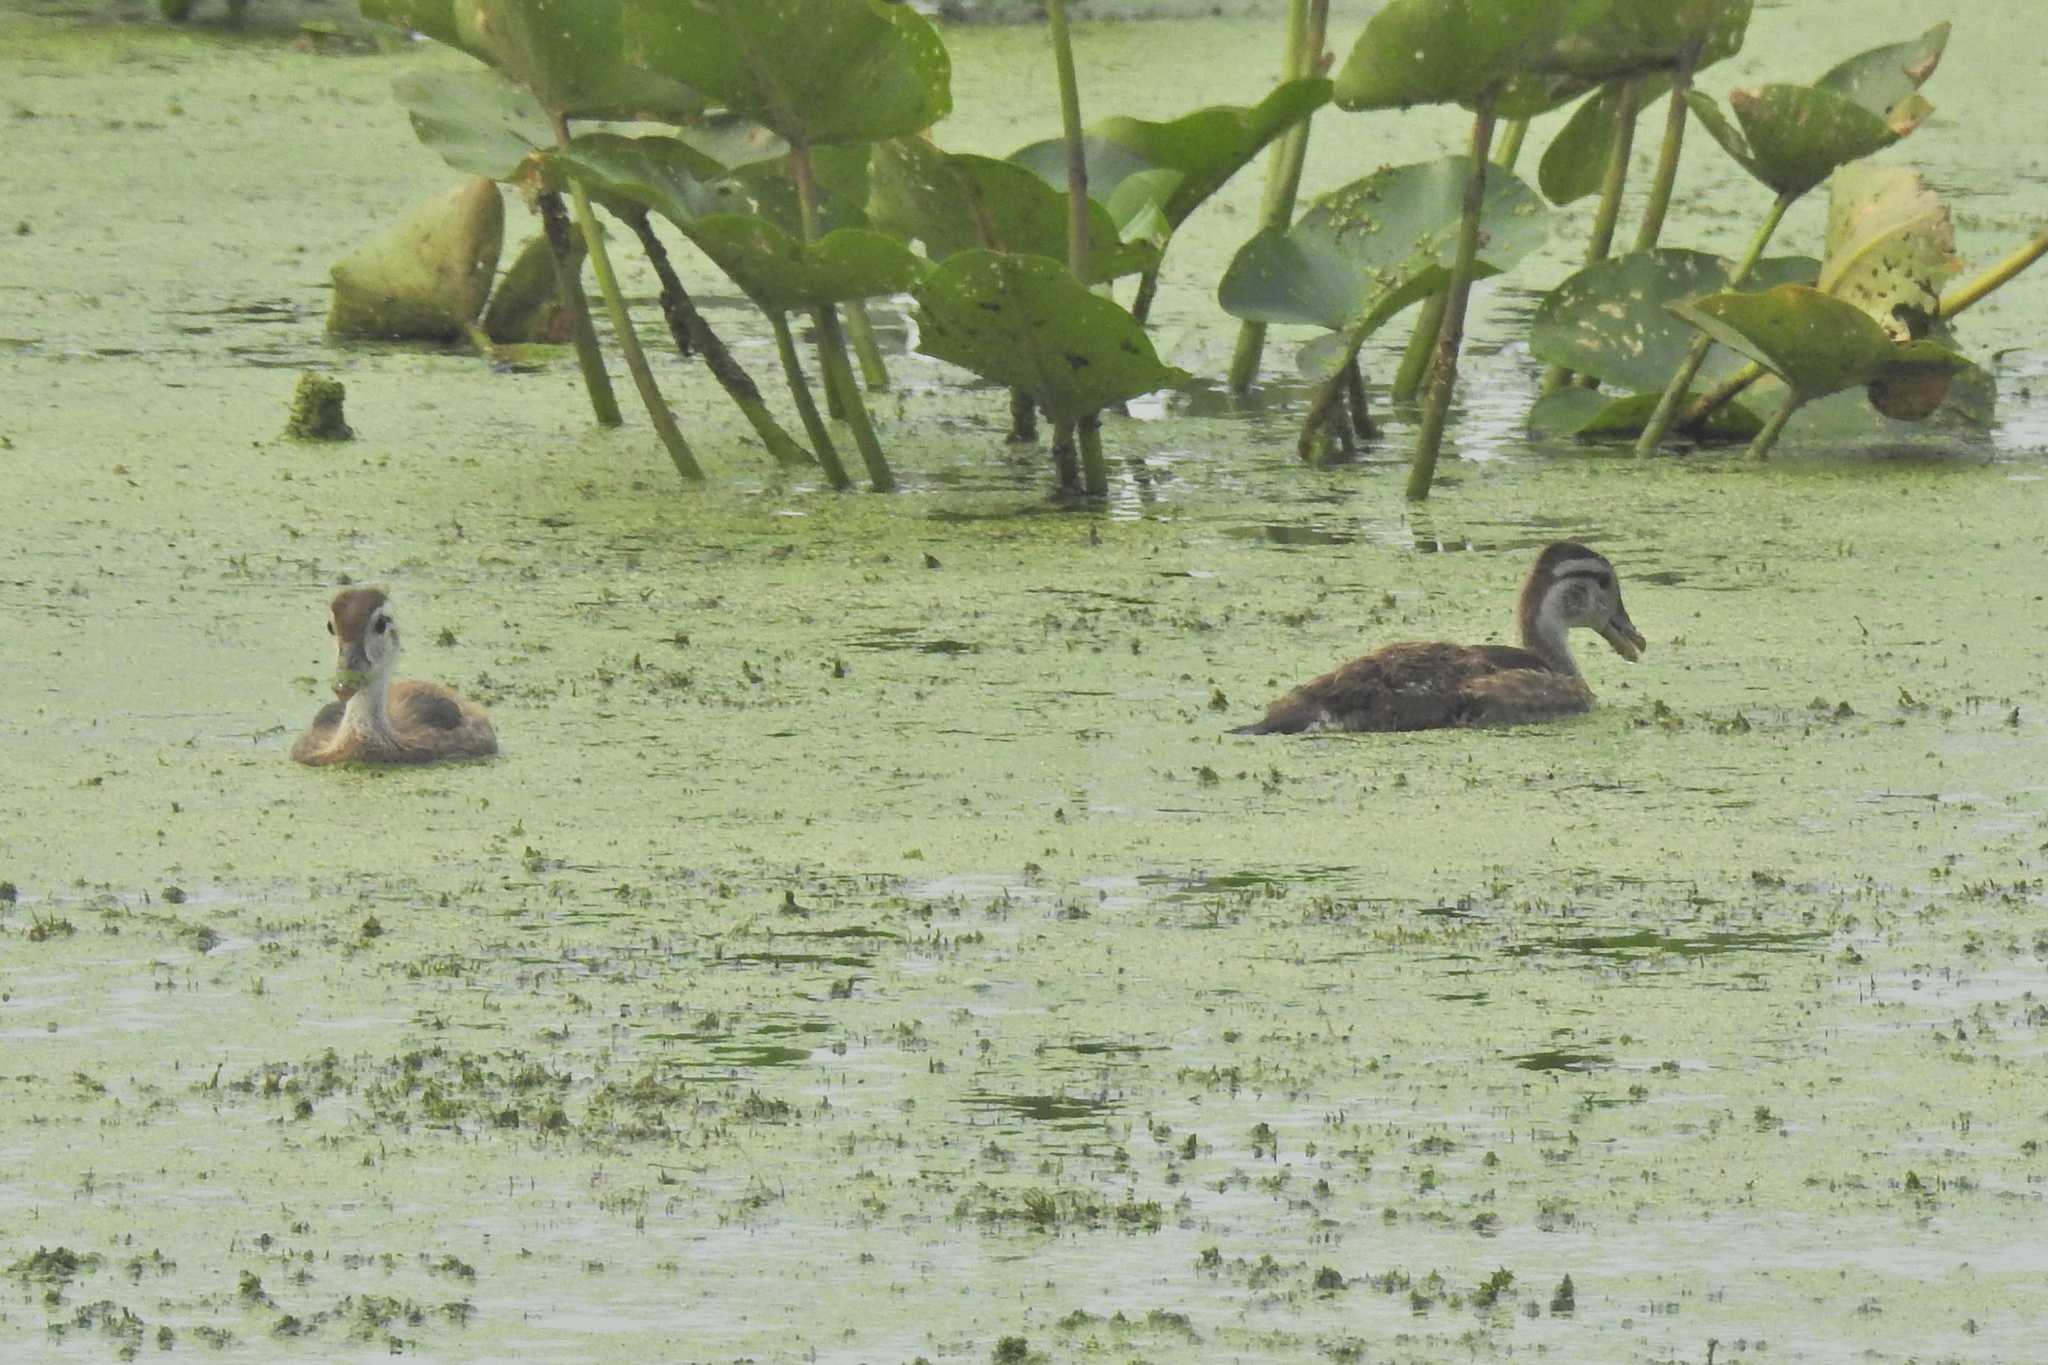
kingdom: Animalia
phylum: Chordata
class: Aves
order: Anseriformes
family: Anatidae
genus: Aix
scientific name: Aix sponsa
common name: Wood duck
